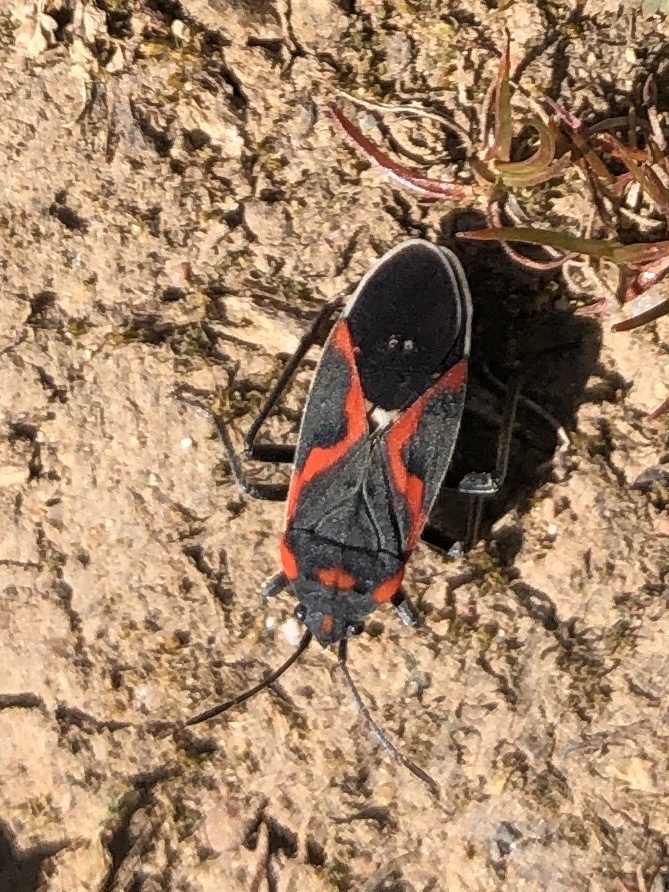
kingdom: Animalia
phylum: Arthropoda
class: Insecta
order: Hemiptera
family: Lygaeidae
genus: Lygaeus
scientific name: Lygaeus kalmii
